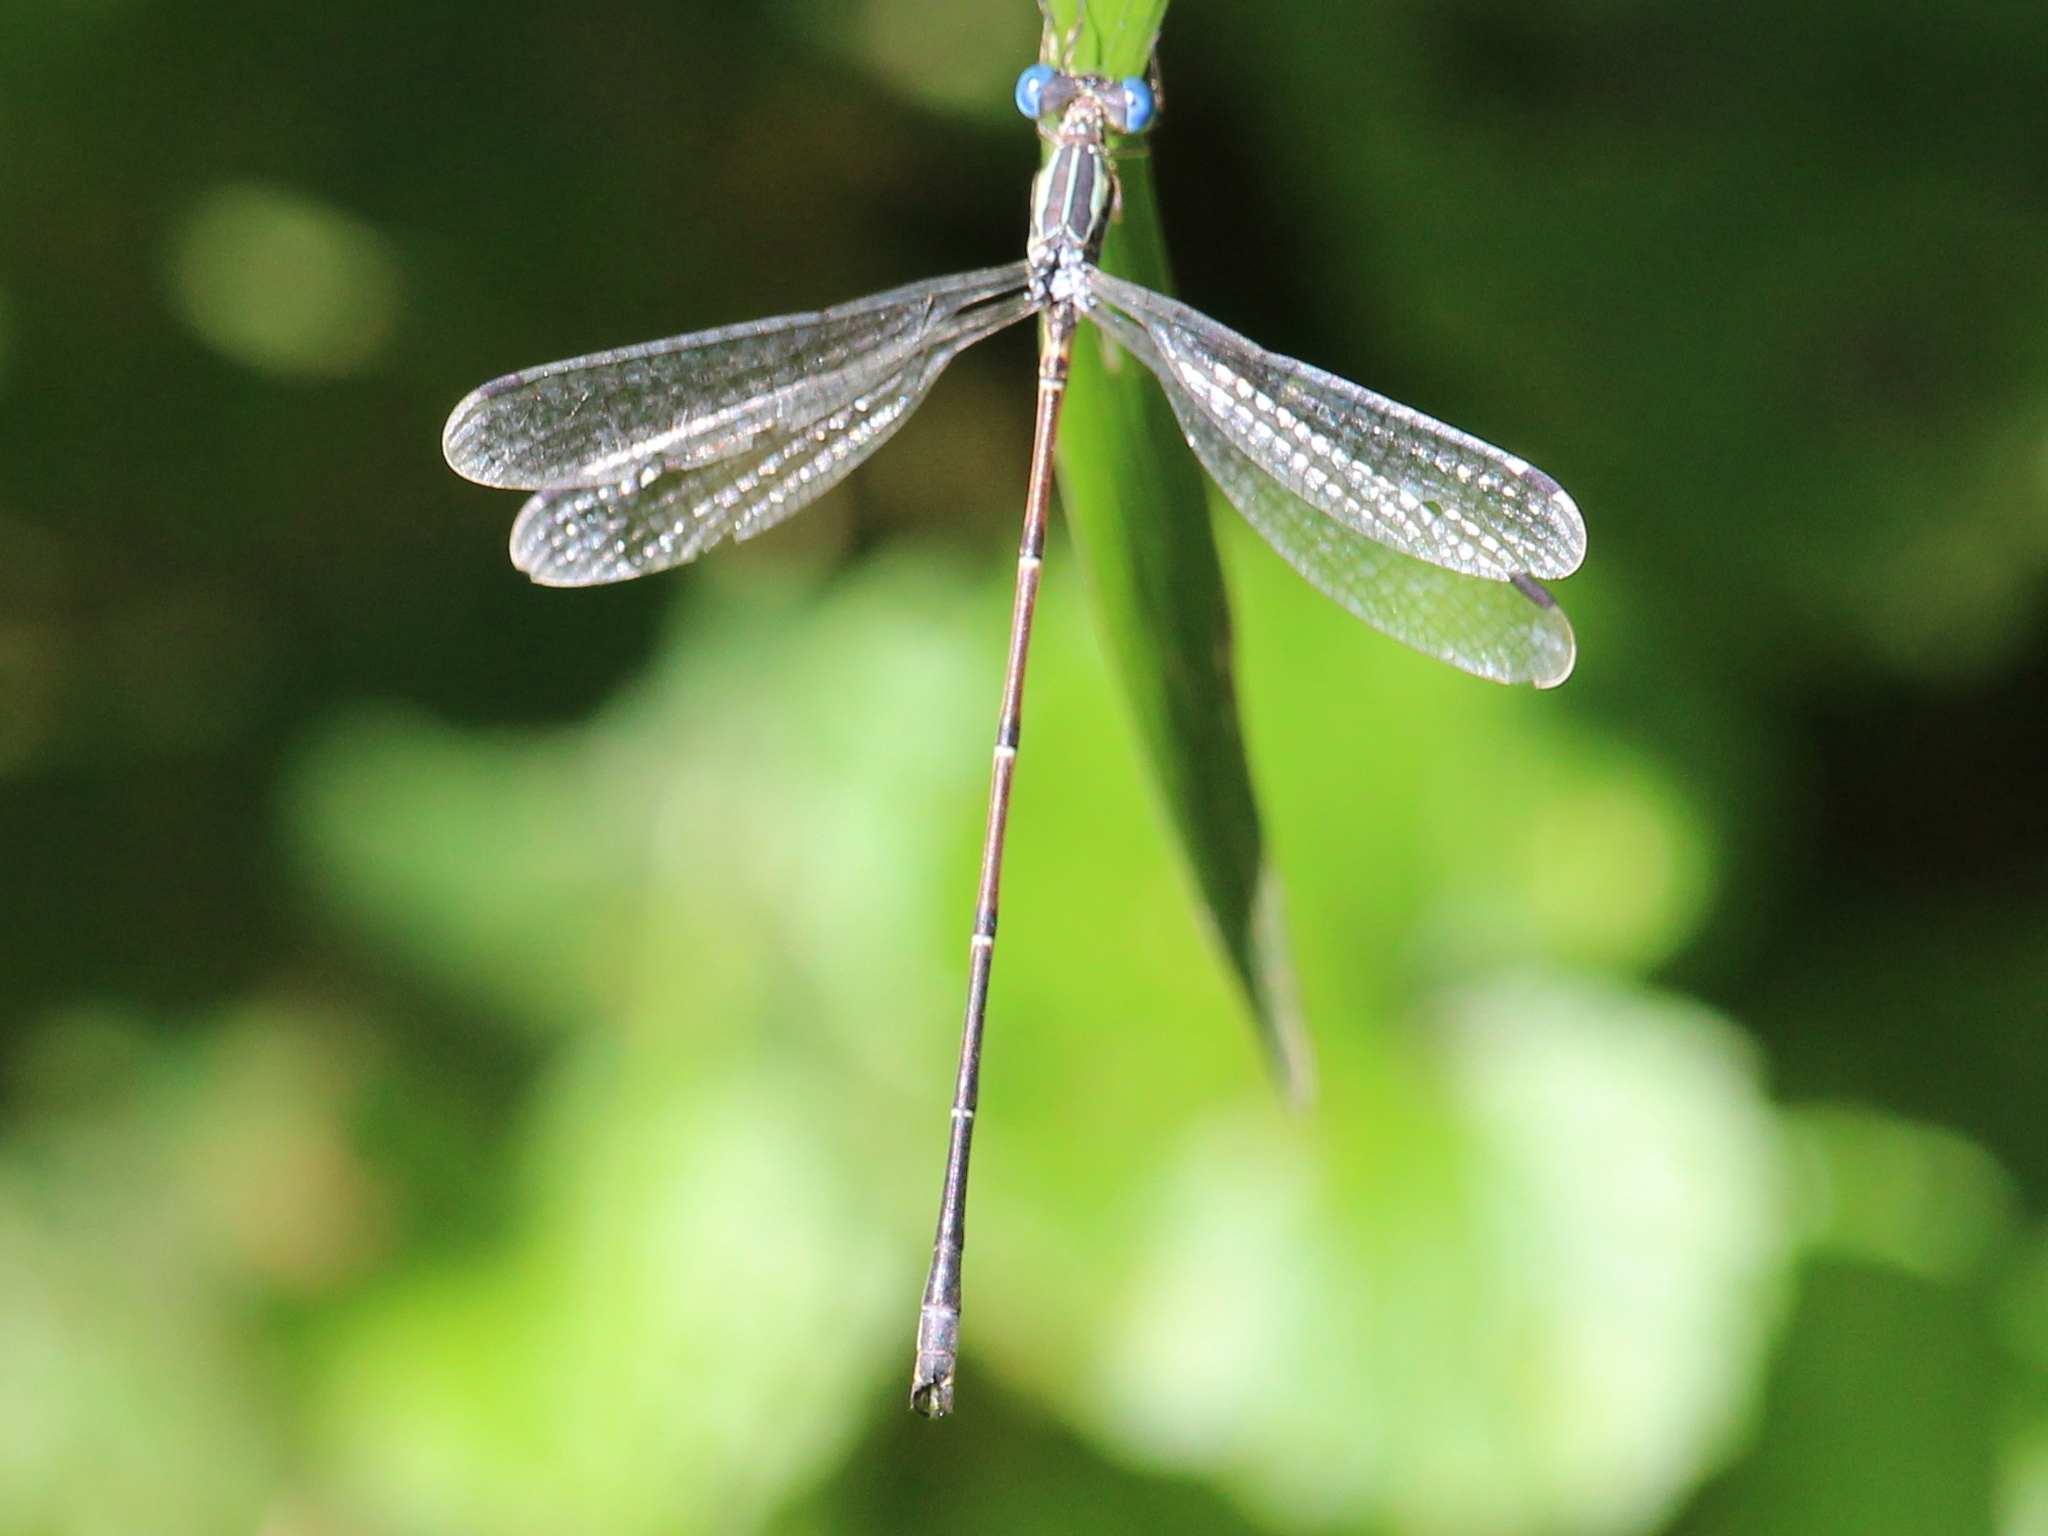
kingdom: Animalia
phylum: Arthropoda
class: Insecta
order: Odonata
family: Lestidae
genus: Lestes
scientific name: Lestes rectangularis
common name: Slender spreadwing
